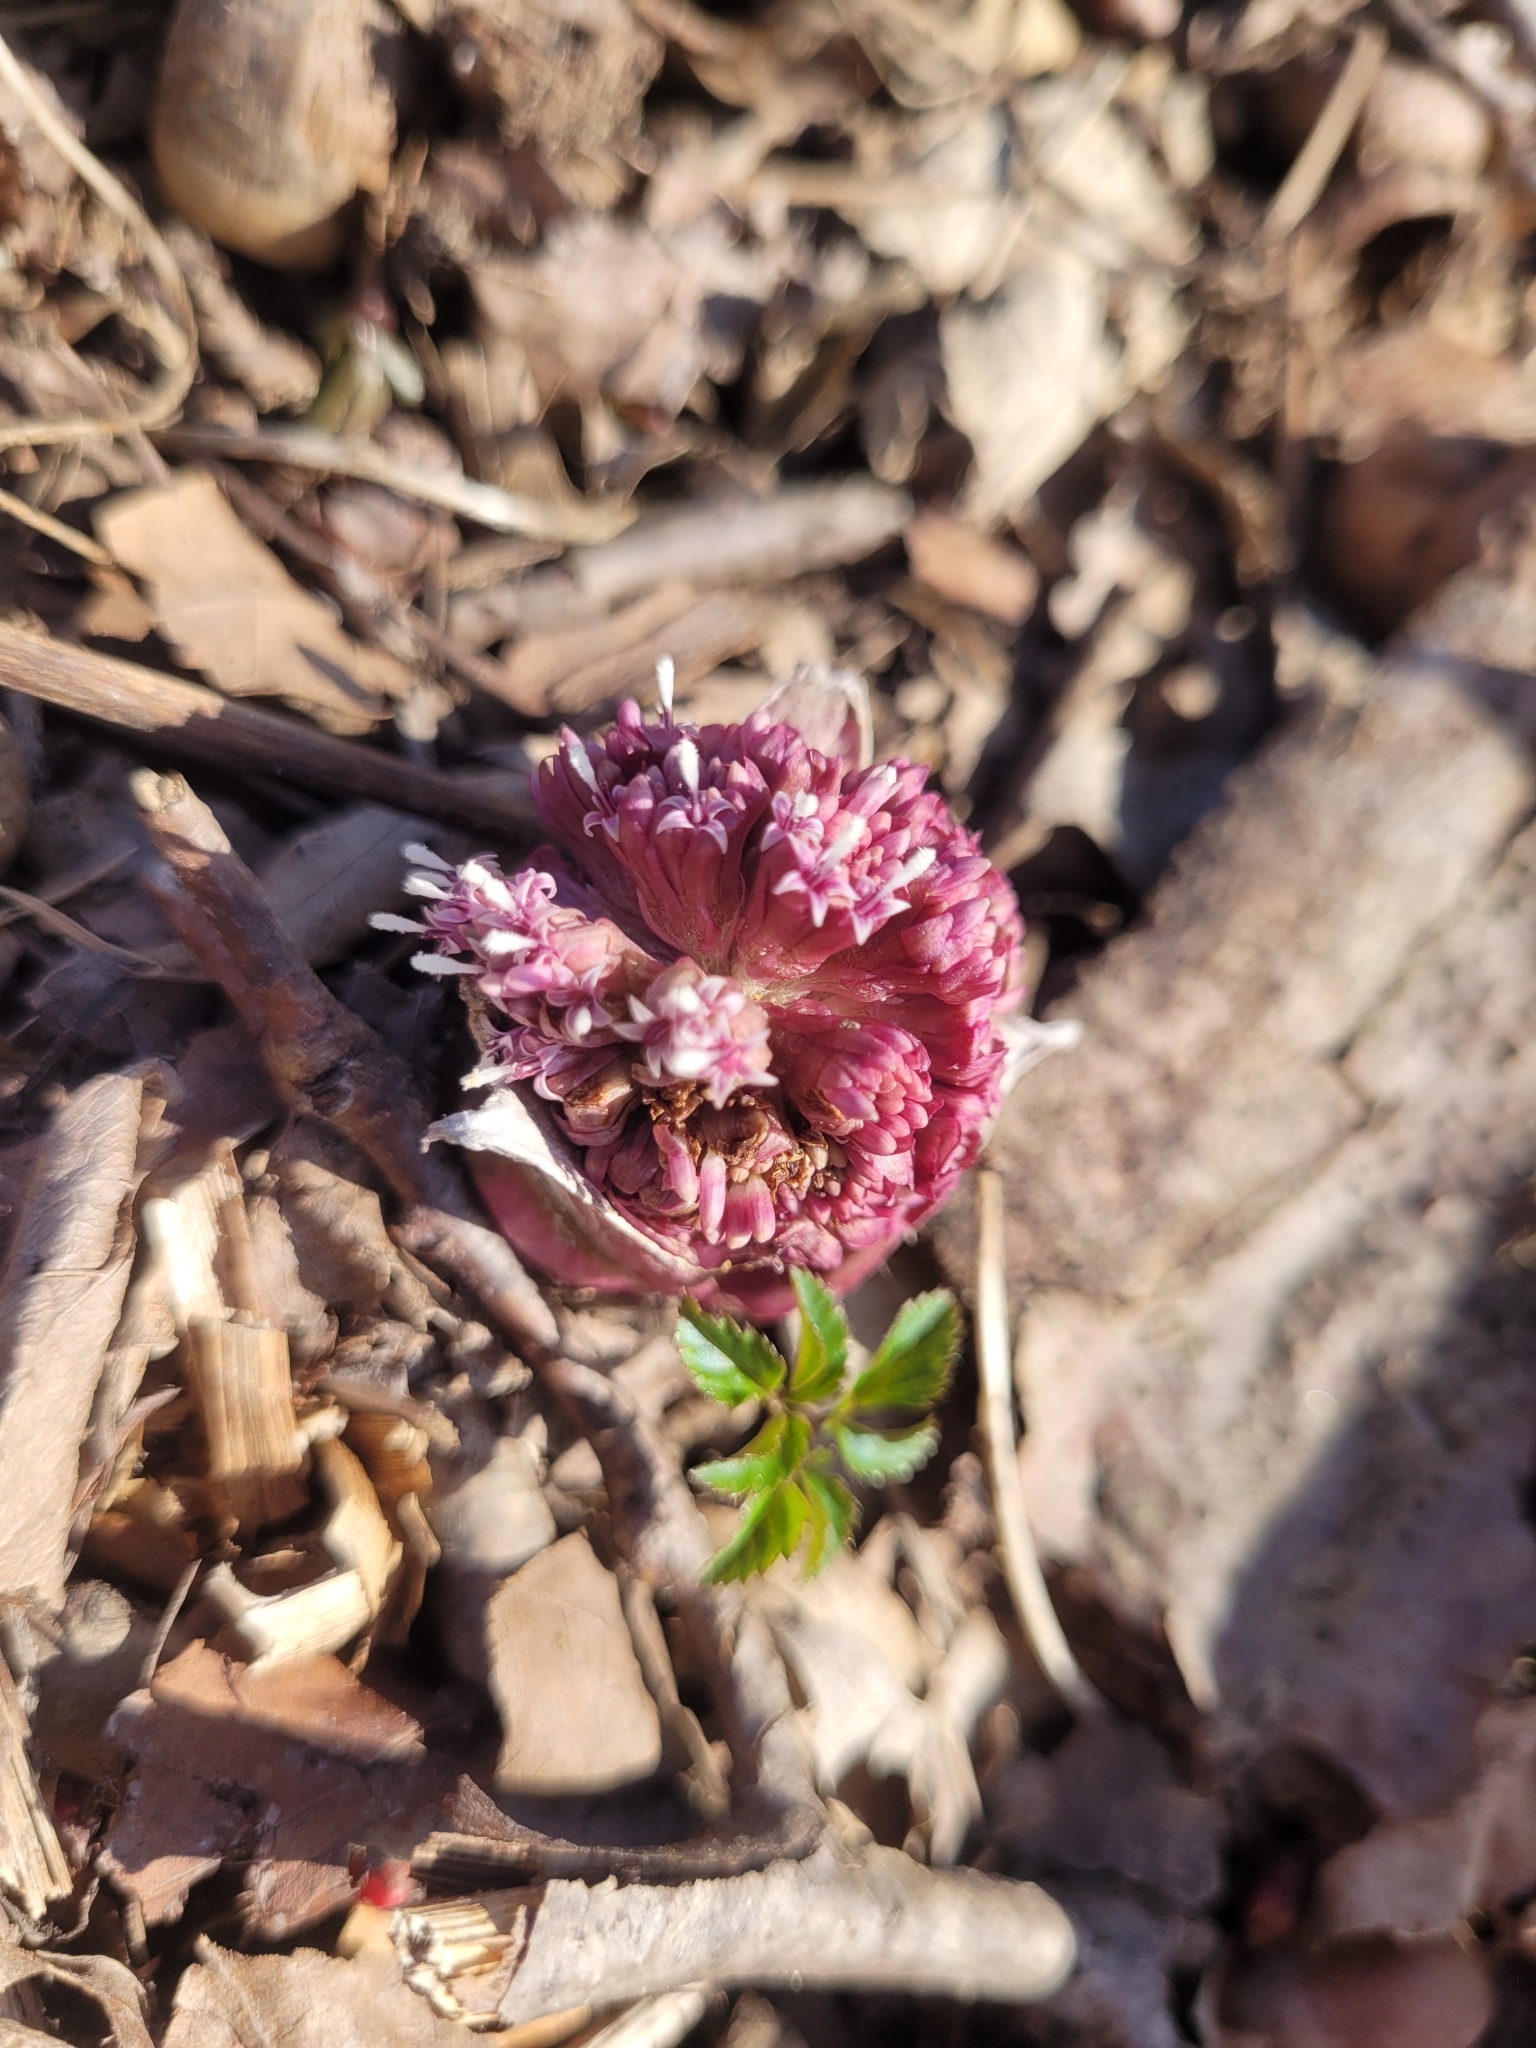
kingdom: Plantae
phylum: Tracheophyta
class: Magnoliopsida
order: Asterales
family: Asteraceae
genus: Petasites
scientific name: Petasites hybridus
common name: Butterbur
